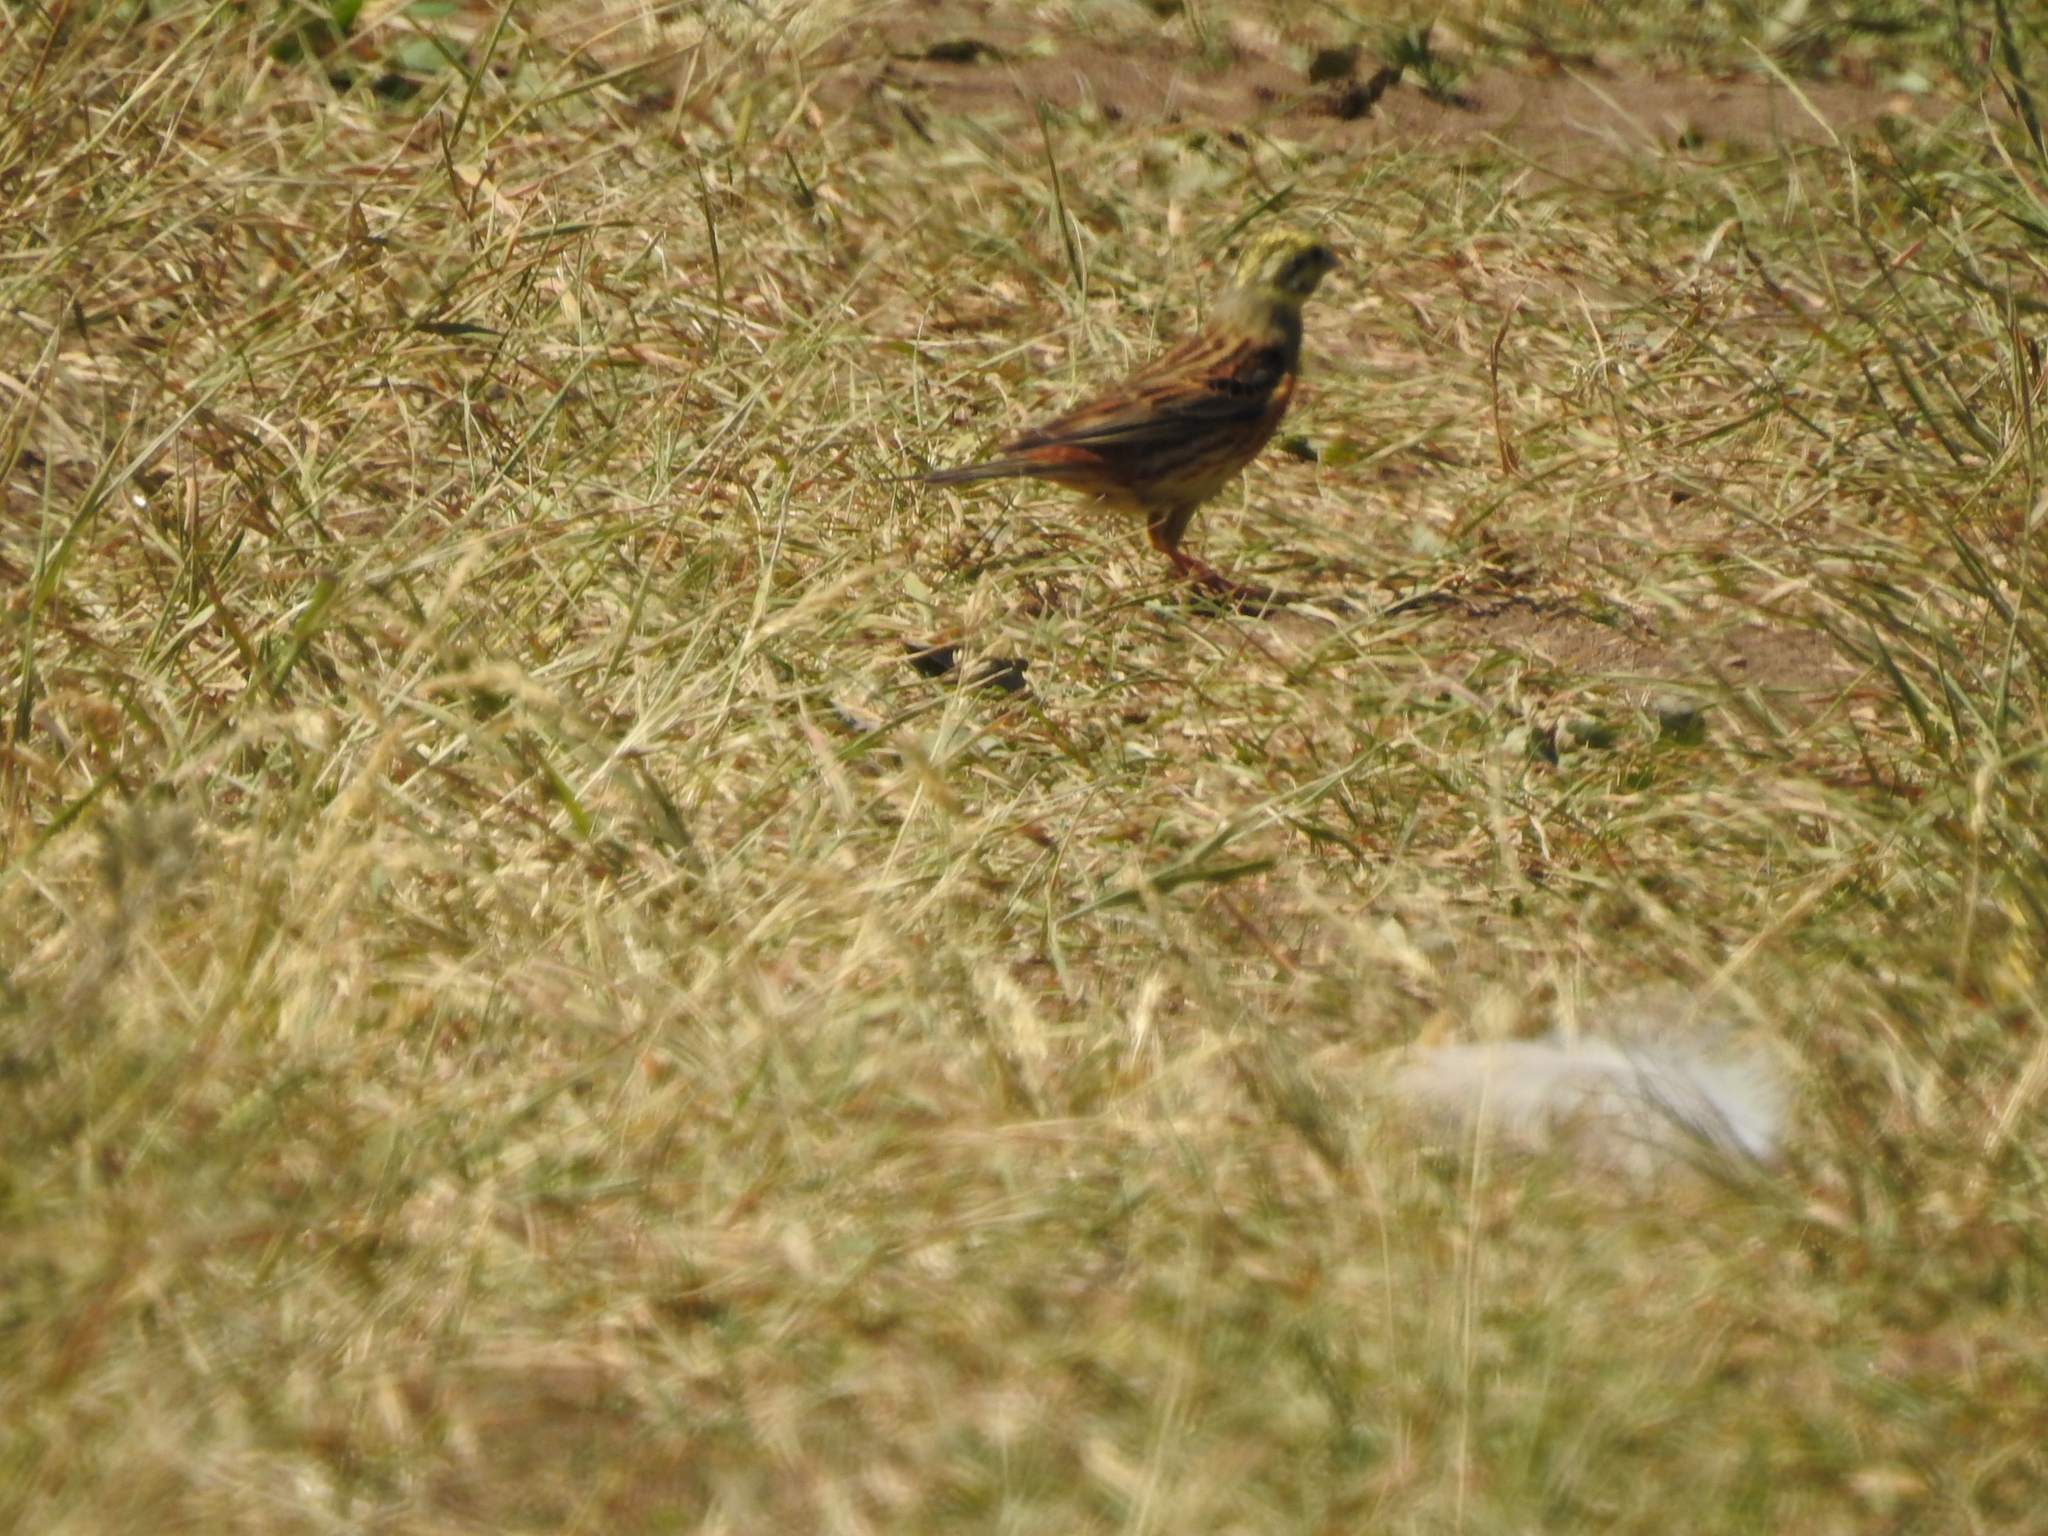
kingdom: Animalia
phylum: Chordata
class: Aves
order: Passeriformes
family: Emberizidae
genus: Emberiza
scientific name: Emberiza citrinella
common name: Yellowhammer
